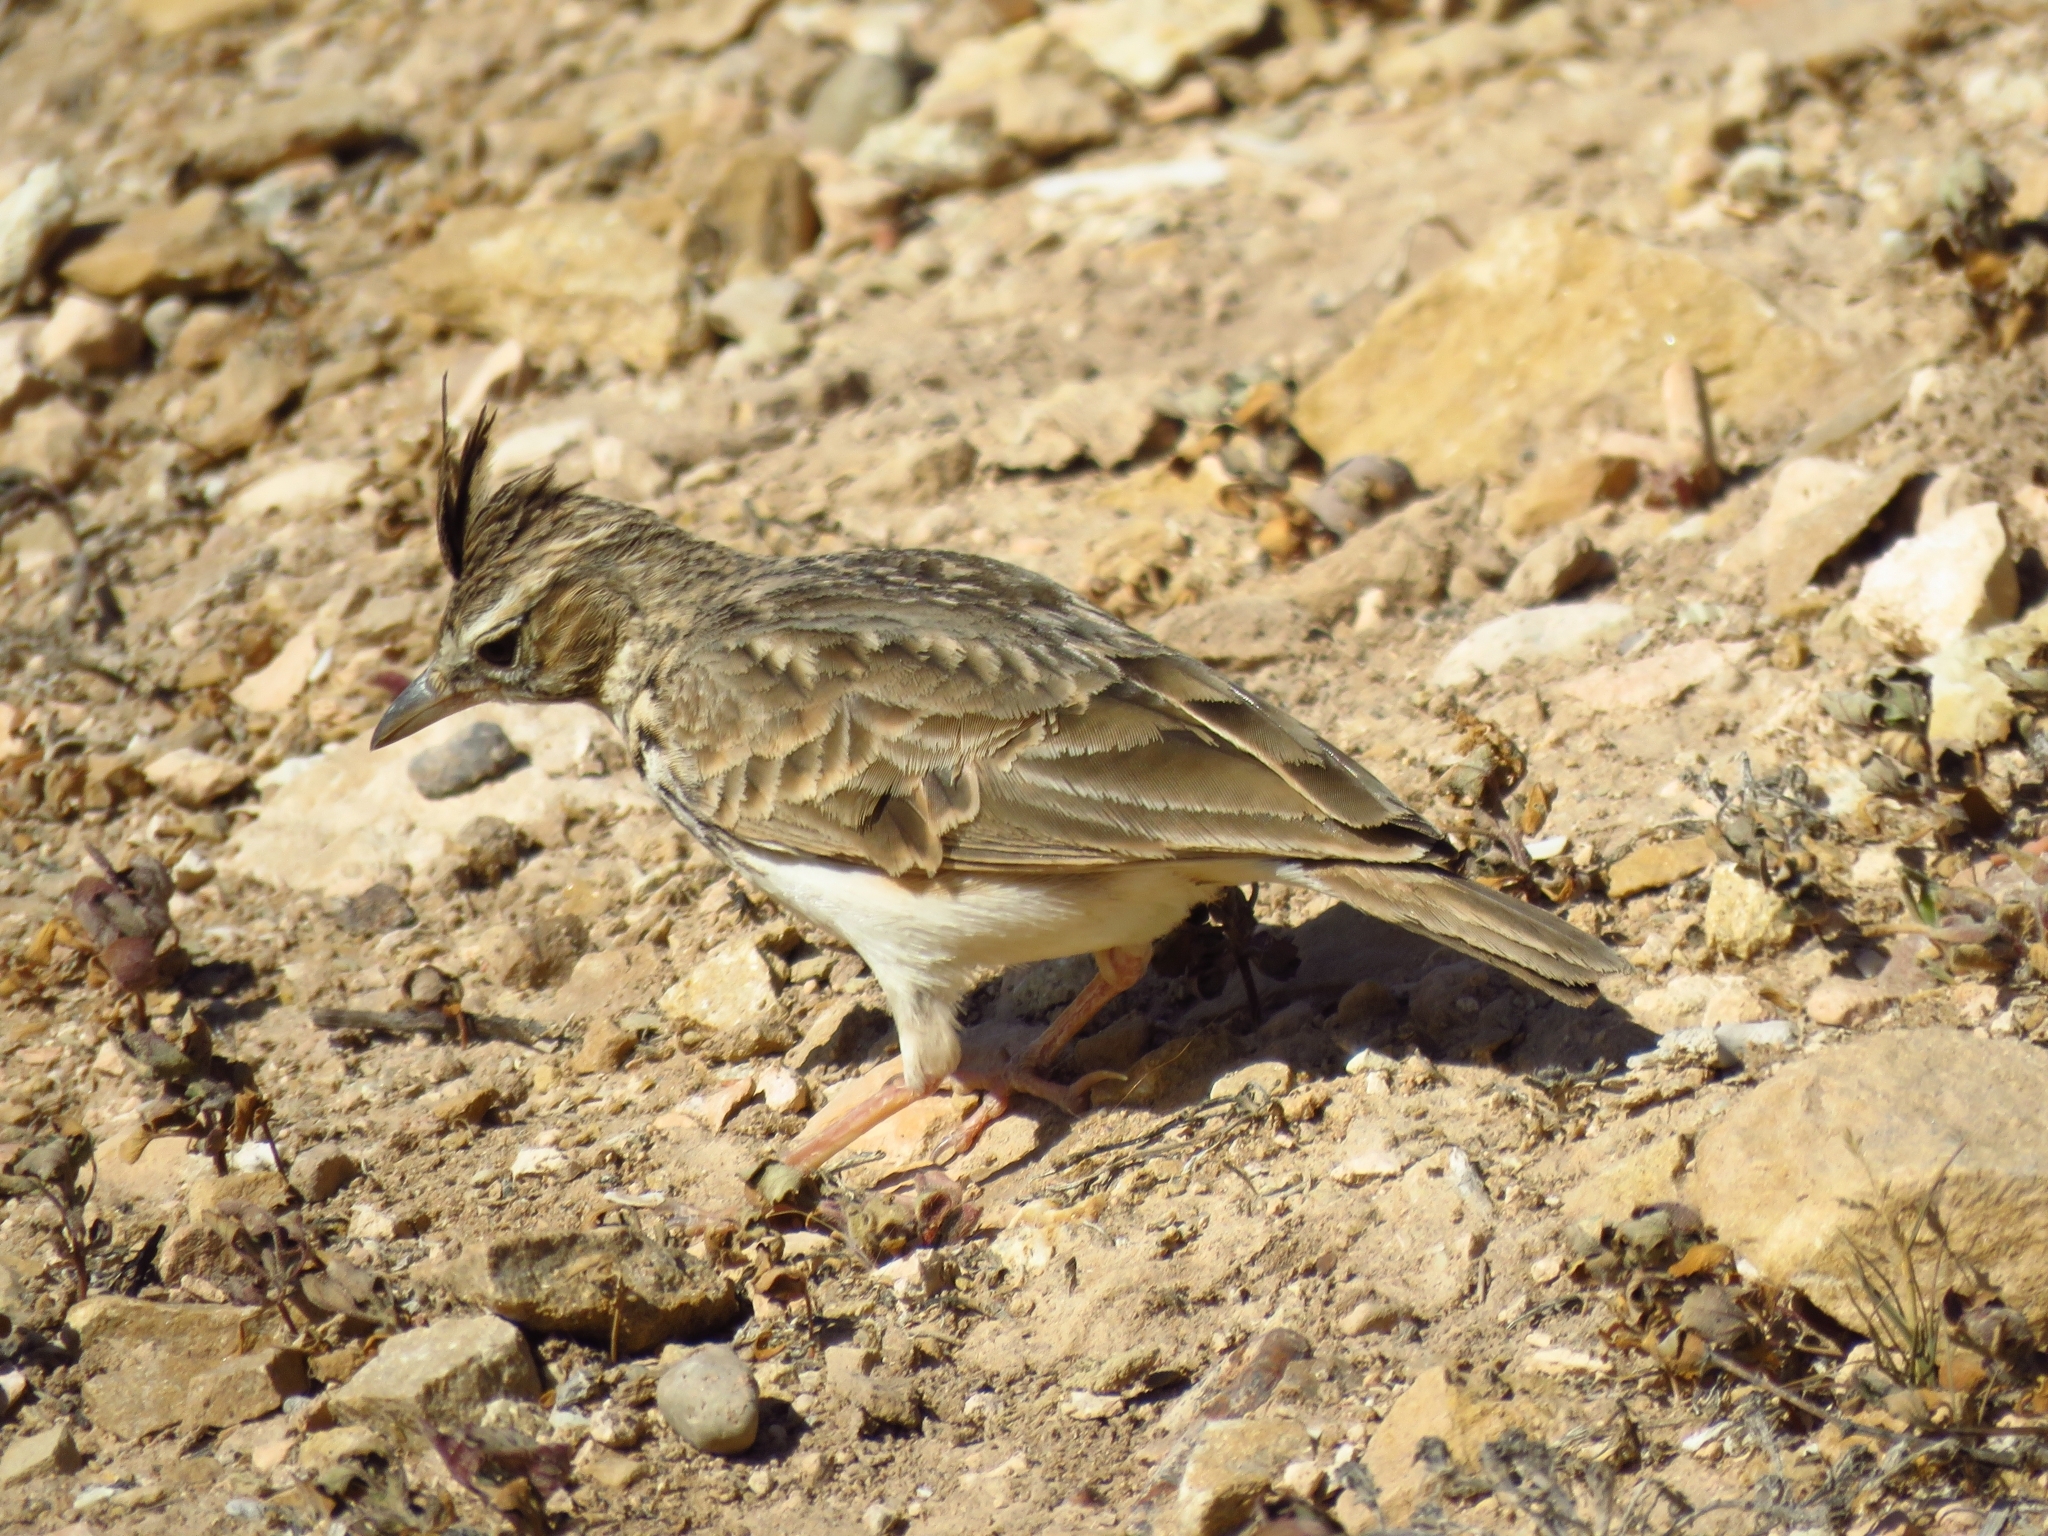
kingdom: Animalia
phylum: Chordata
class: Aves
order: Passeriformes
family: Alaudidae
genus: Galerida
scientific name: Galerida theklae
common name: Thekla lark
